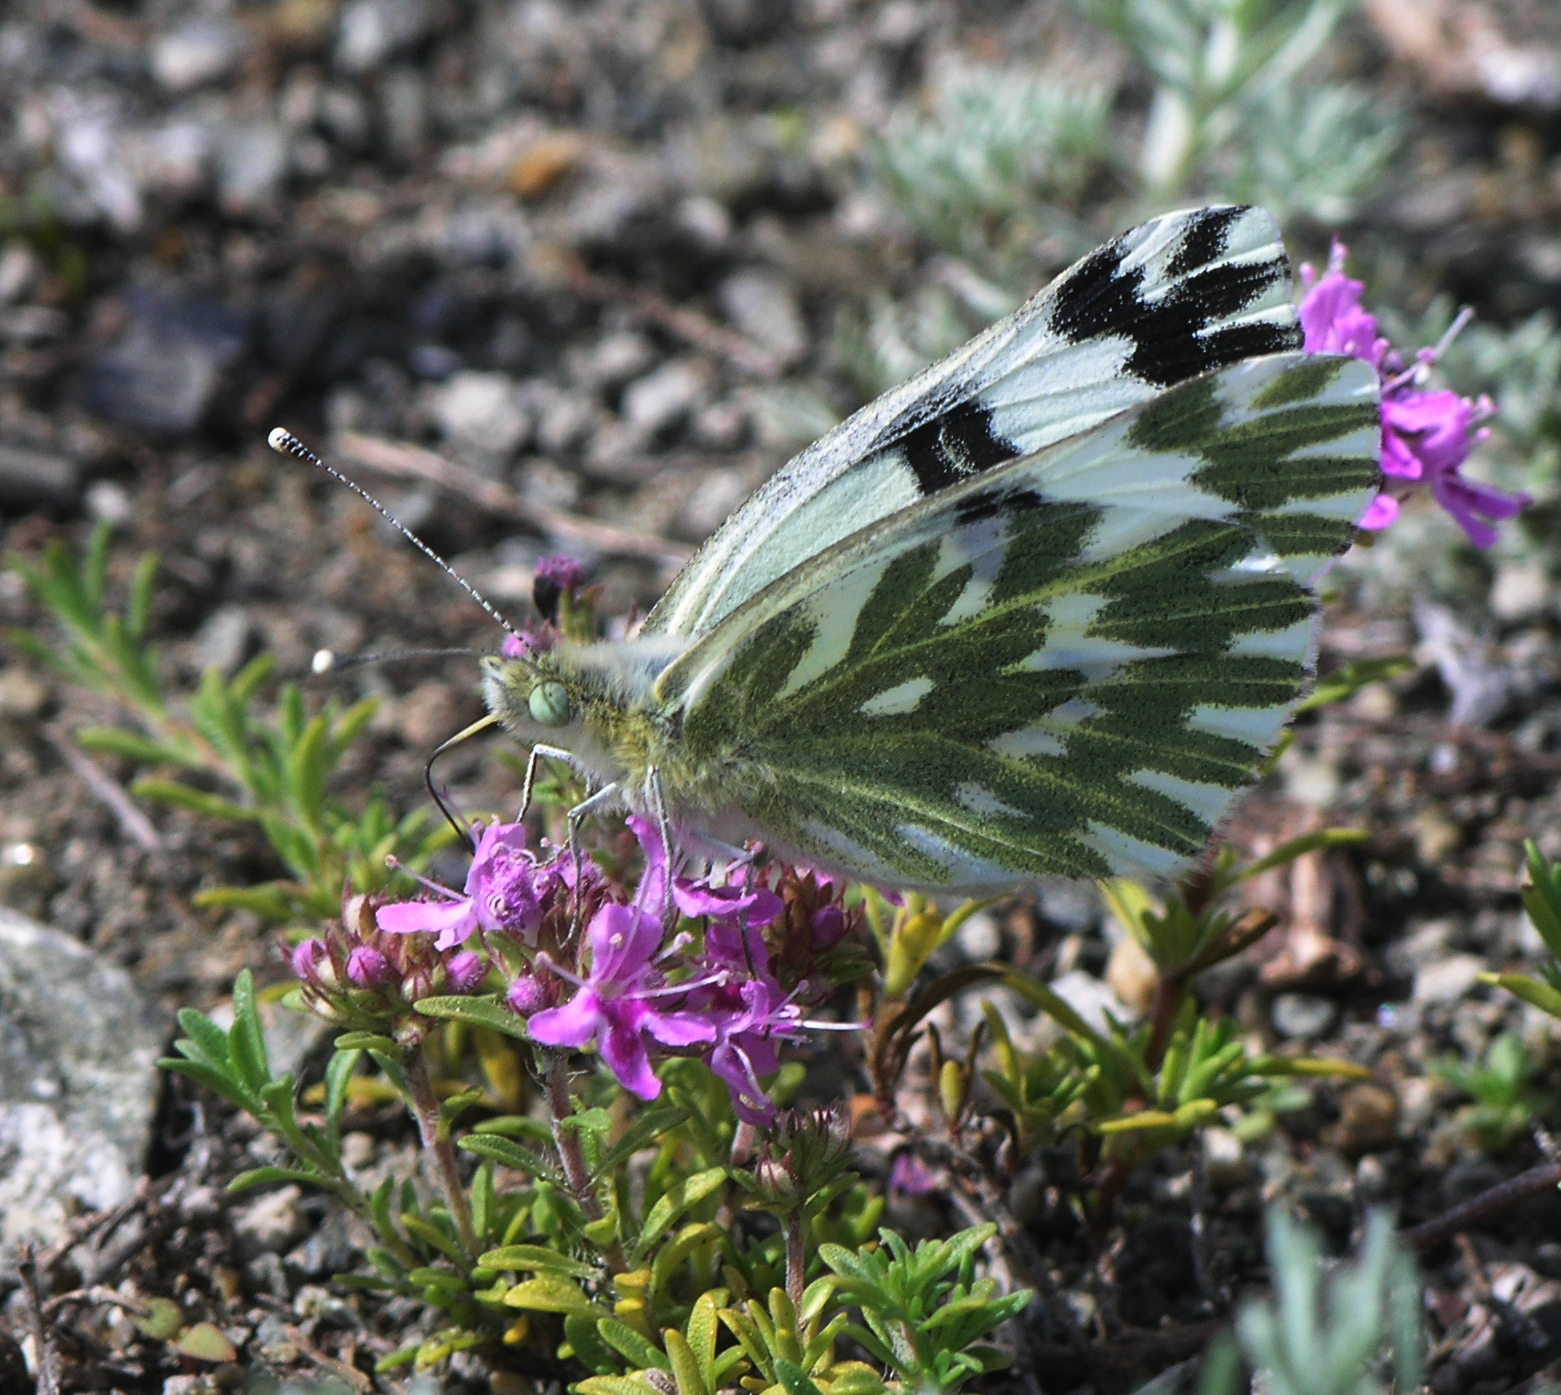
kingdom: Animalia
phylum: Arthropoda
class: Insecta
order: Lepidoptera
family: Pieridae
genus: Pontia
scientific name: Pontia chloridice
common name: Small bath white
